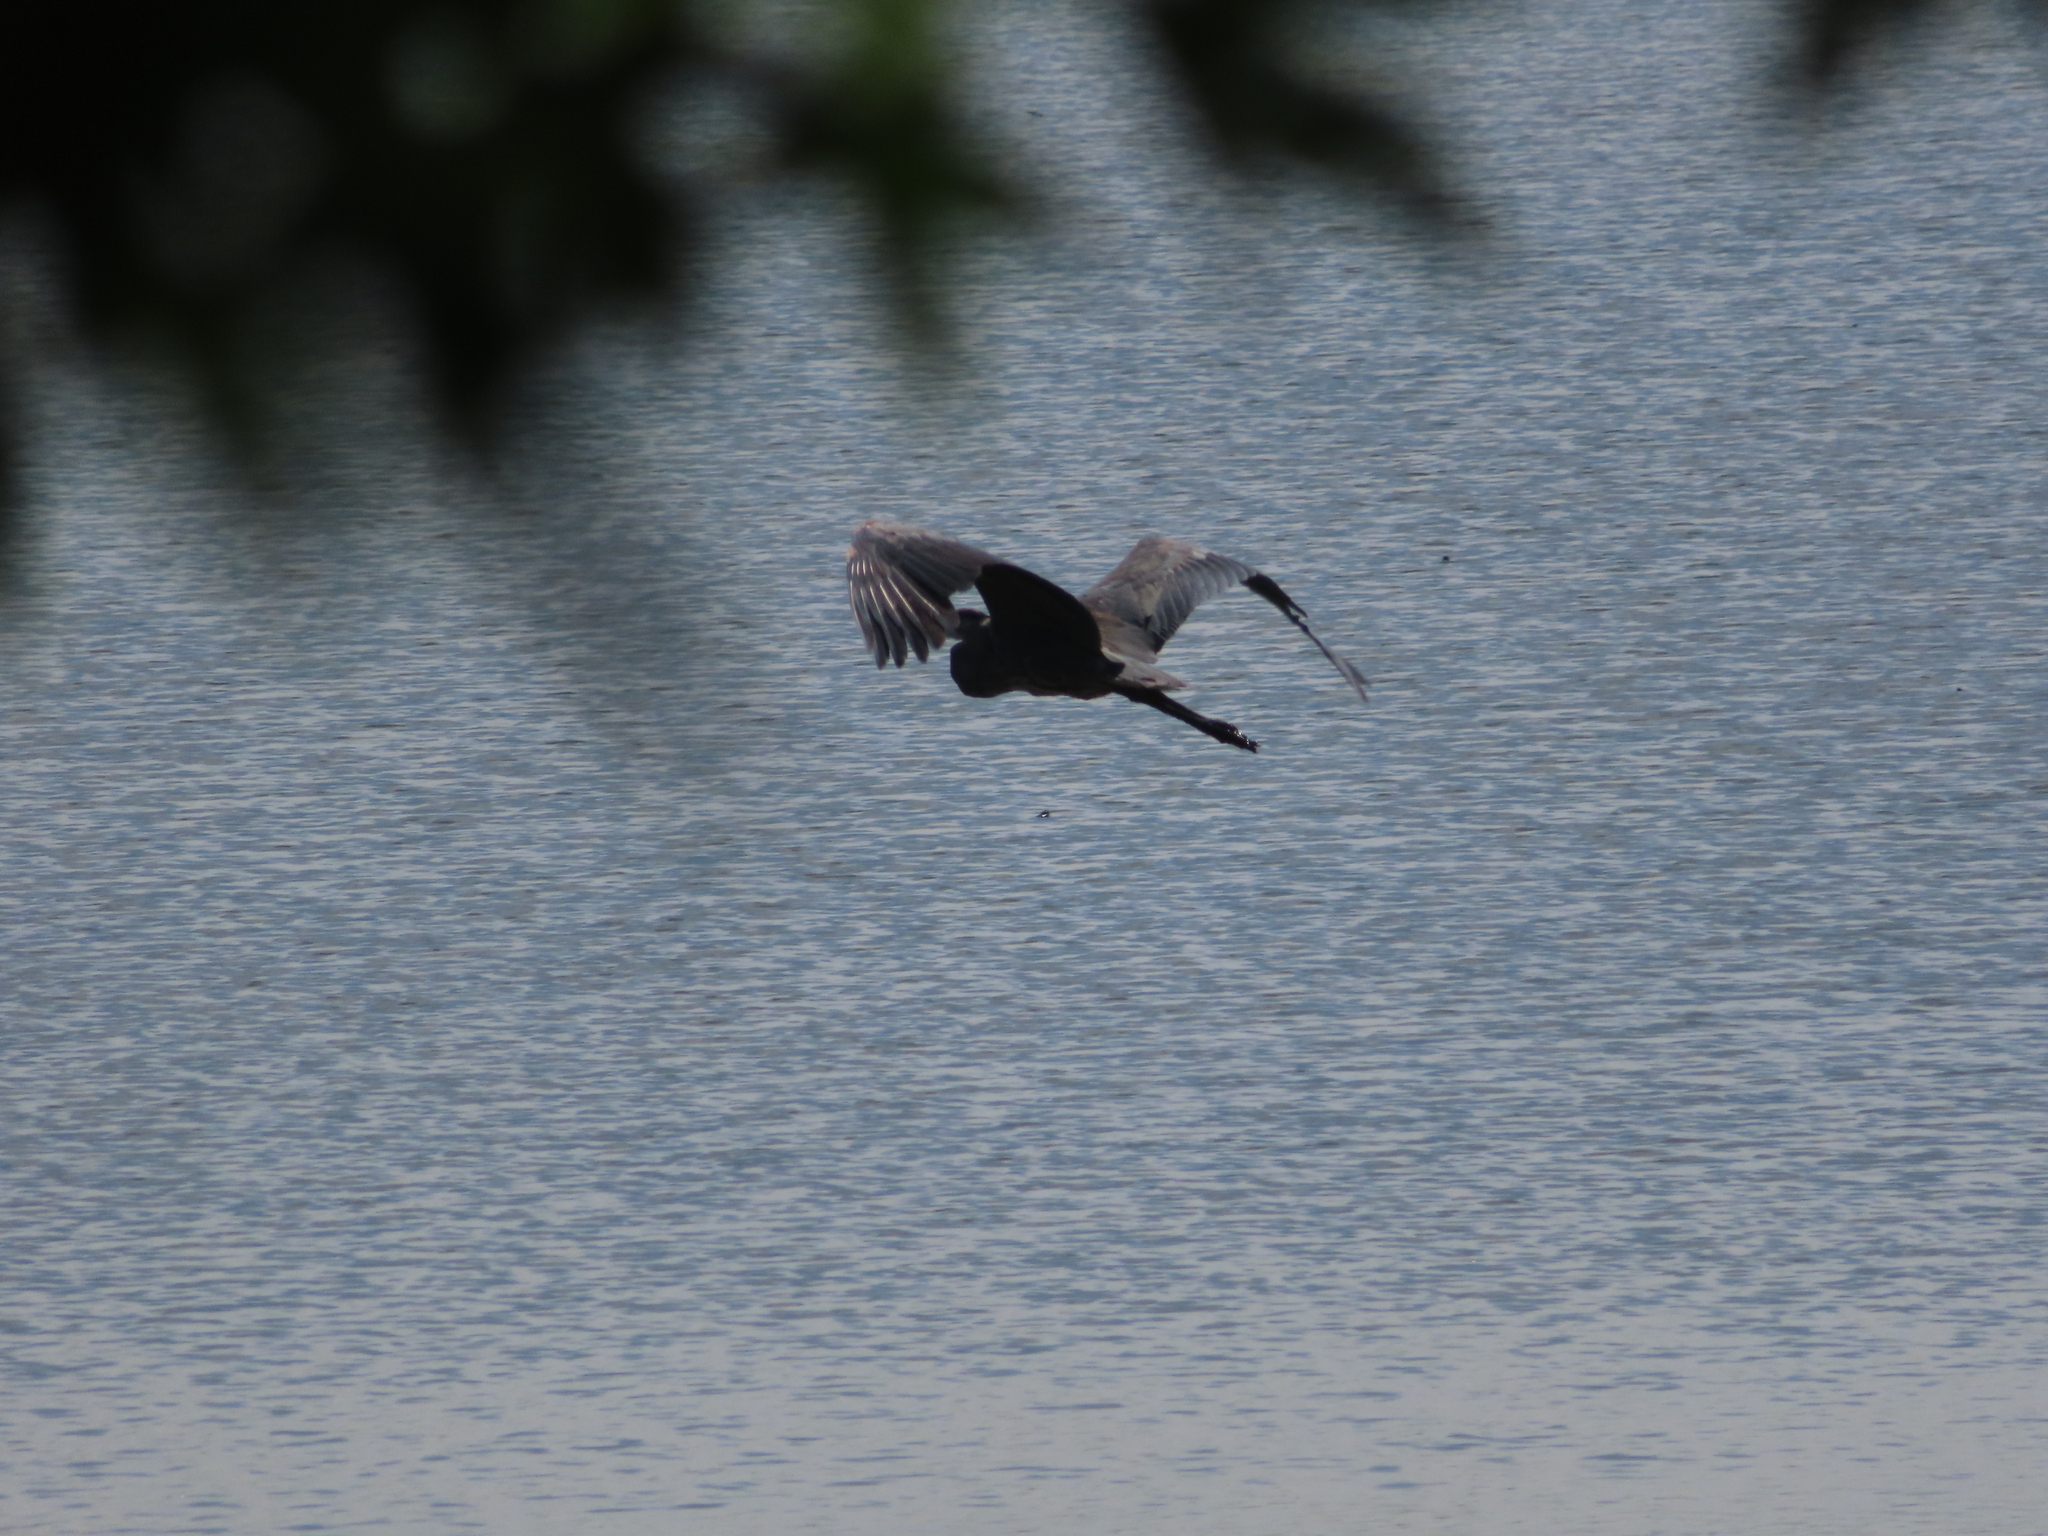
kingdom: Animalia
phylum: Chordata
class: Aves
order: Pelecaniformes
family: Ardeidae
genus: Ardea
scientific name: Ardea herodias
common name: Great blue heron
